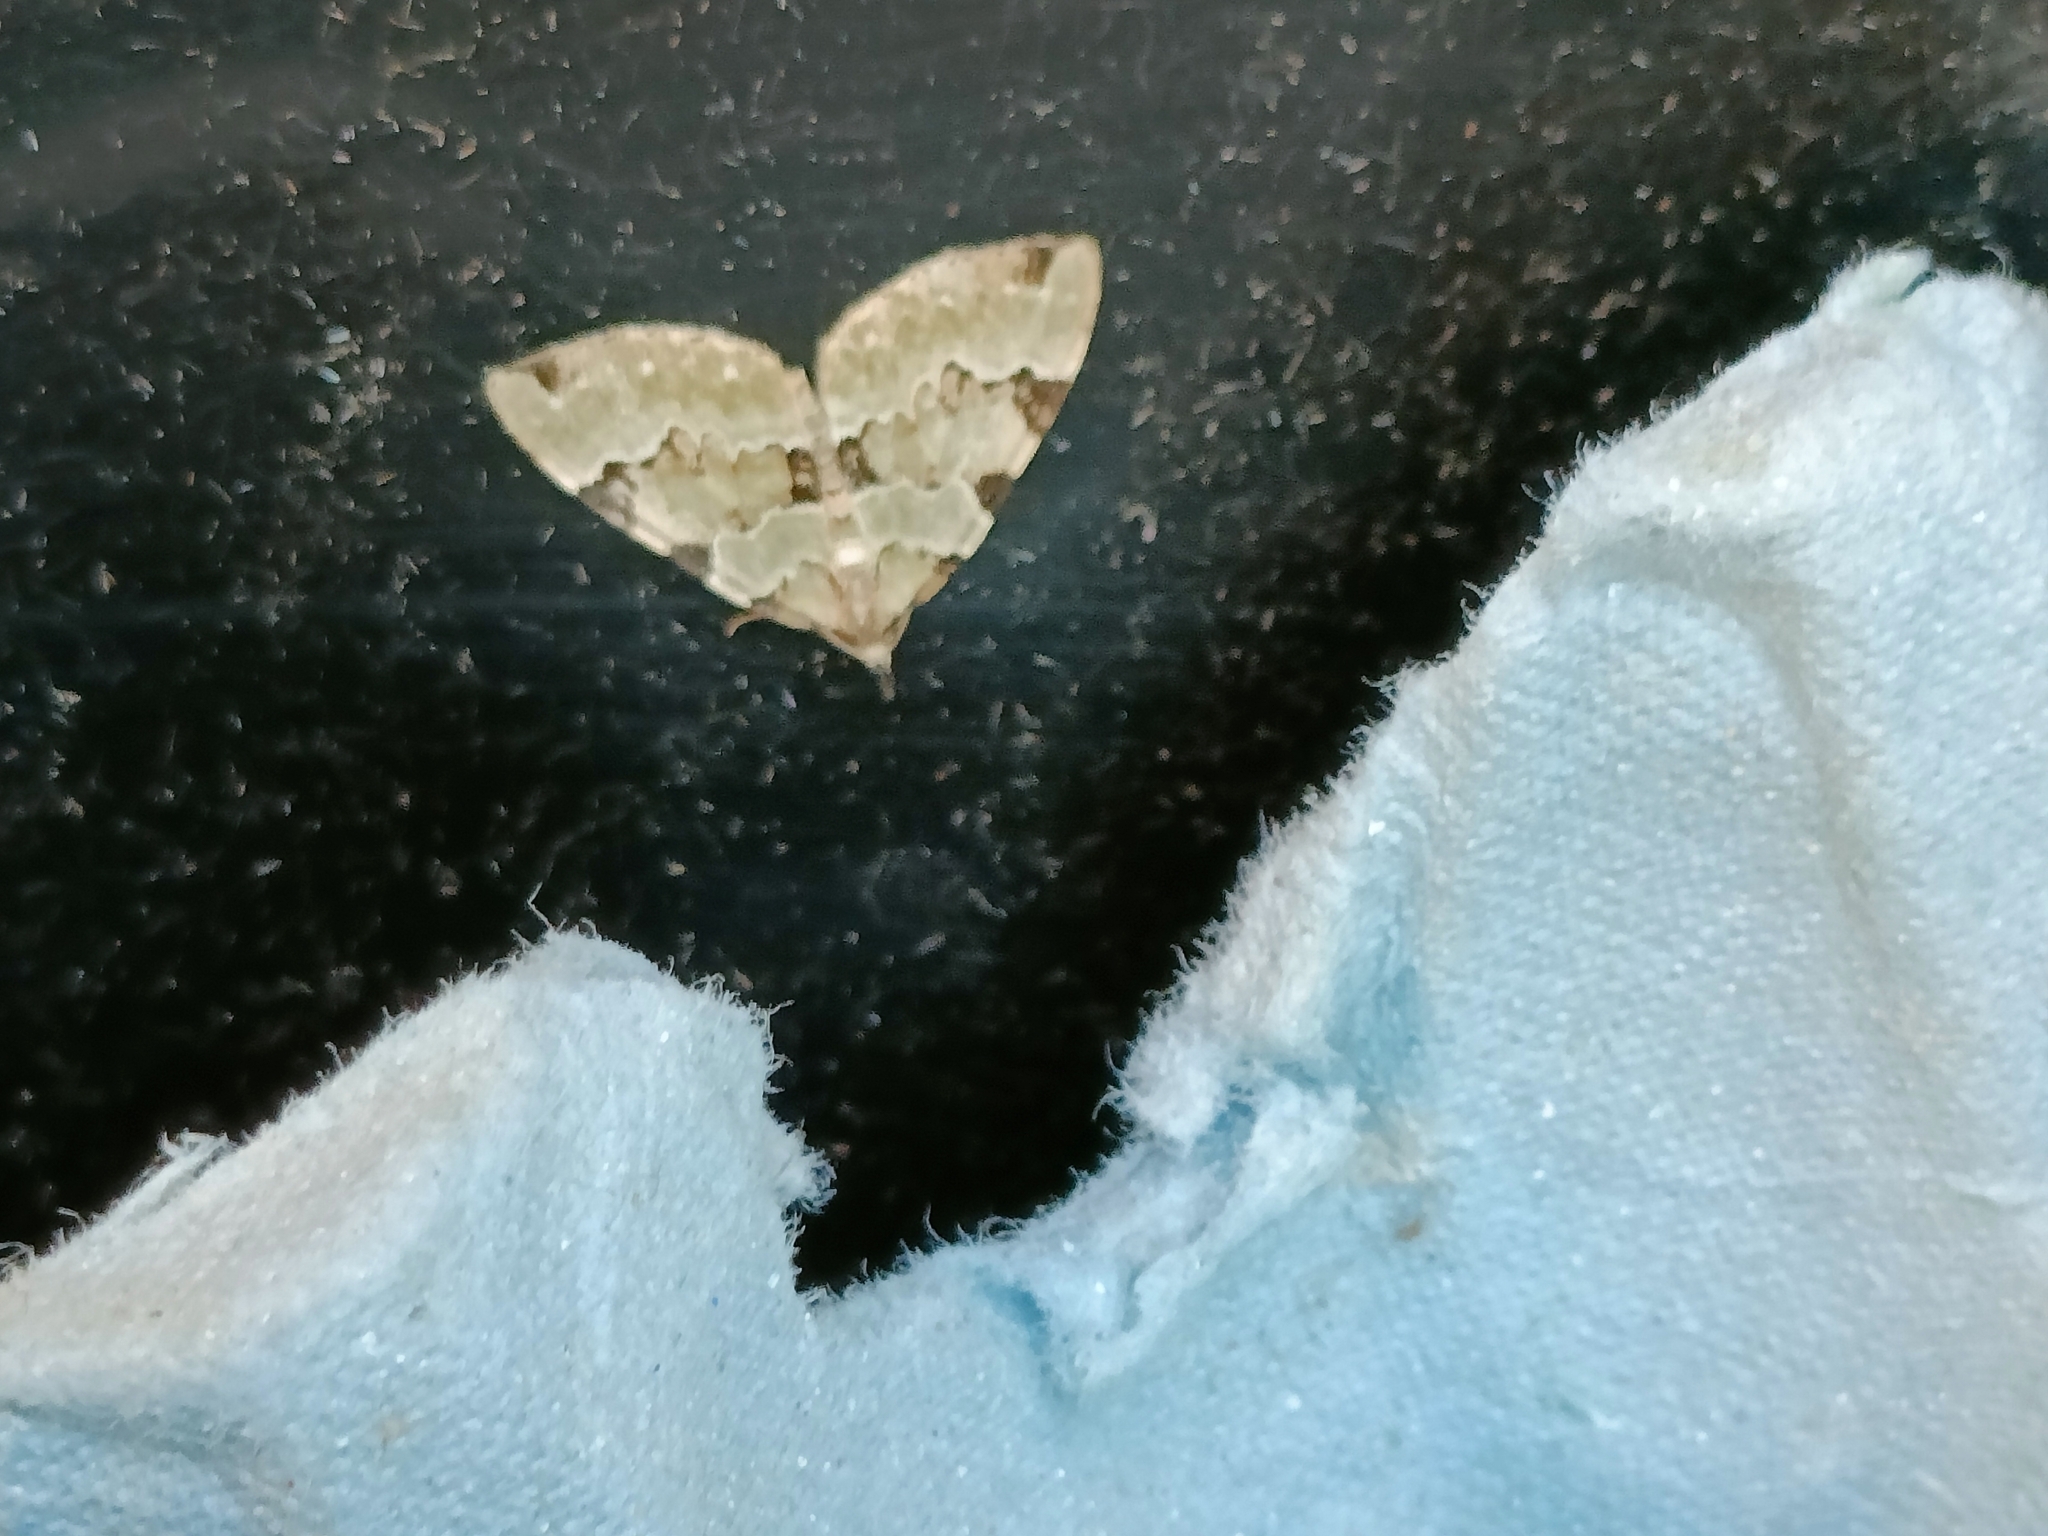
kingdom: Animalia
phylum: Arthropoda
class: Insecta
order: Lepidoptera
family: Geometridae
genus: Colostygia
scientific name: Colostygia pectinataria
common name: Green carpet
